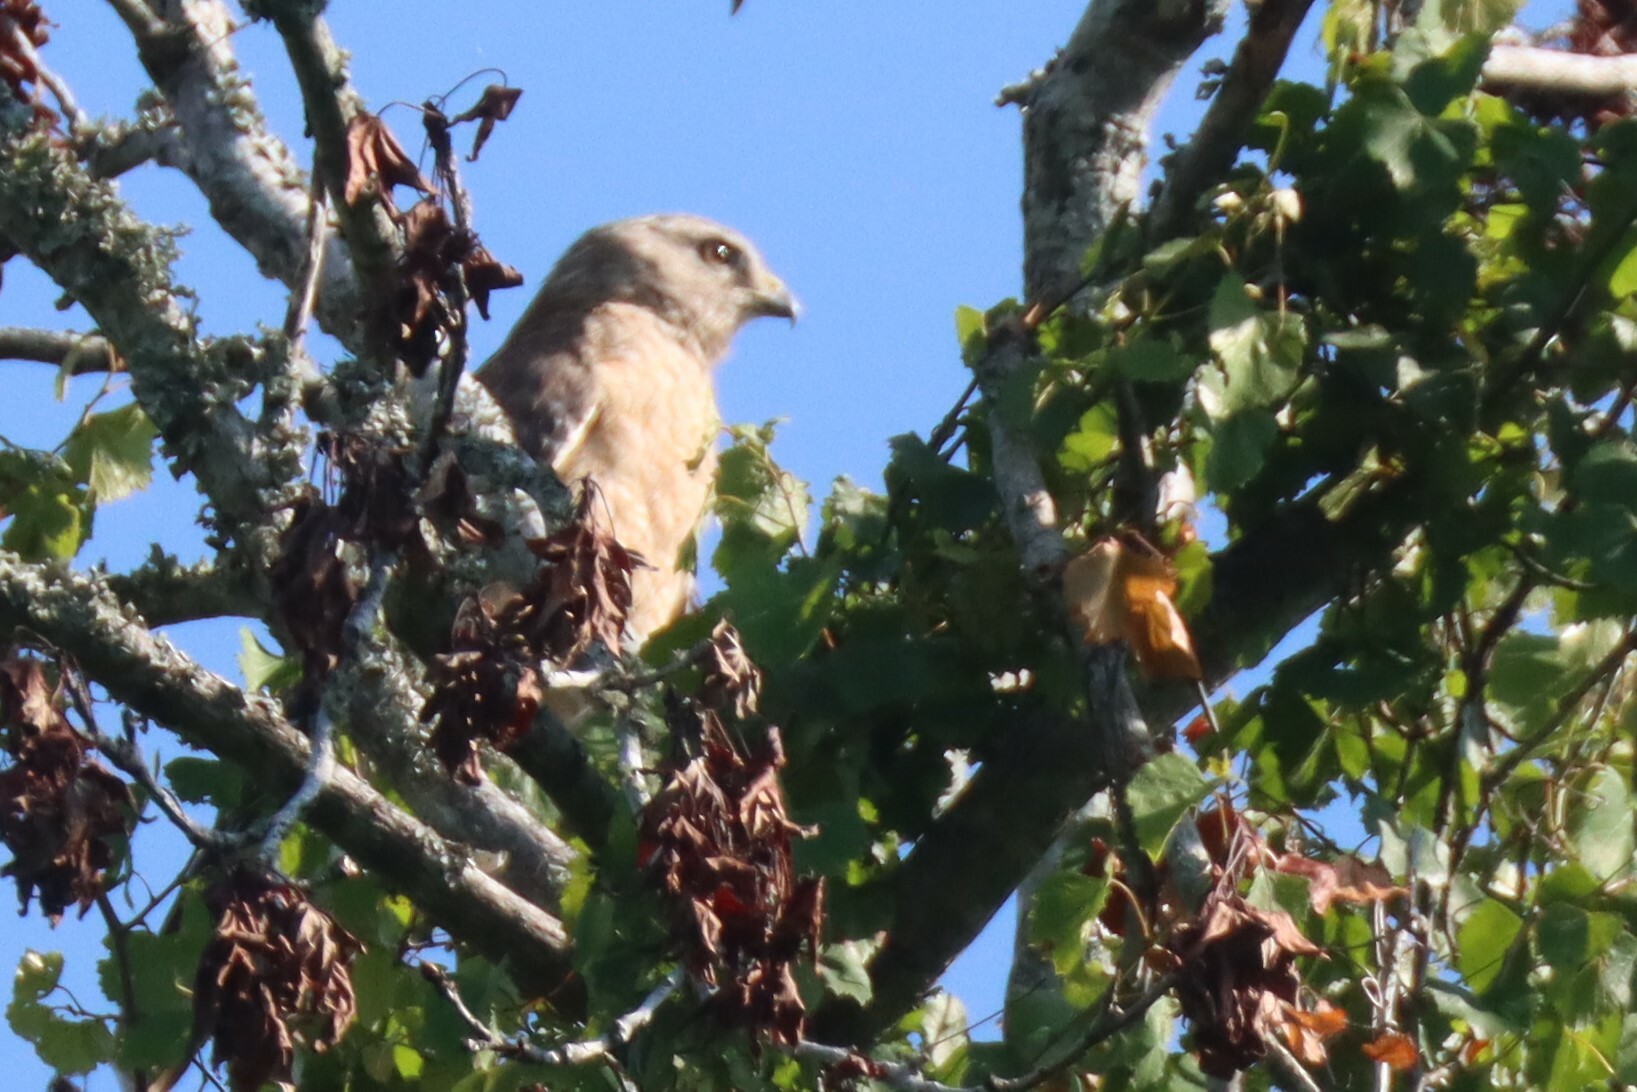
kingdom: Animalia
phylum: Chordata
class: Aves
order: Accipitriformes
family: Accipitridae
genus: Buteo
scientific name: Buteo lineatus
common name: Red-shouldered hawk
